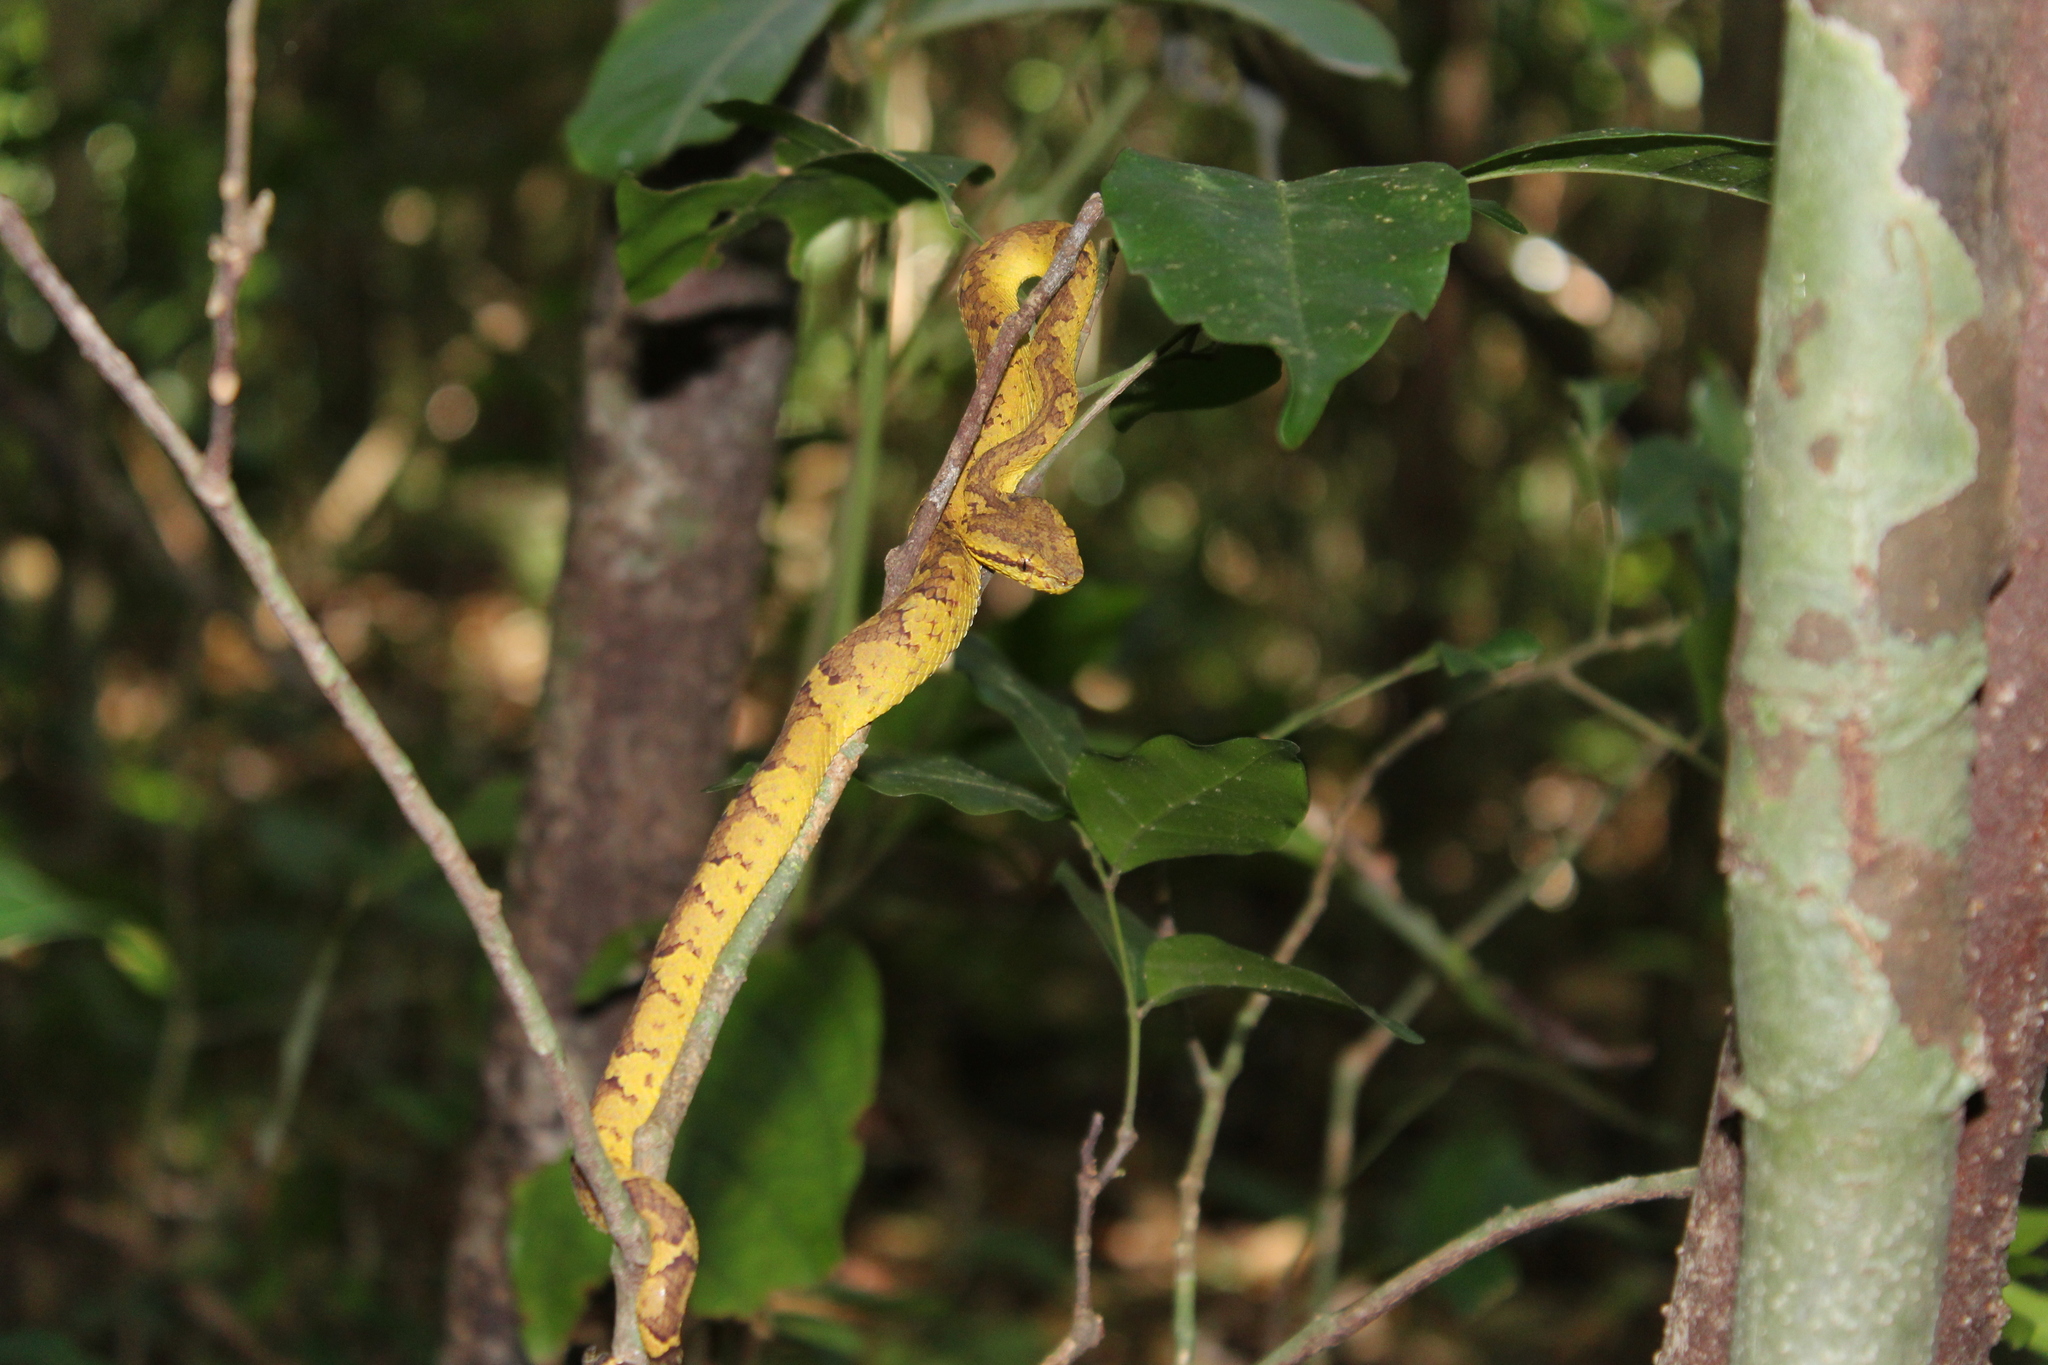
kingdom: Animalia
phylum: Chordata
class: Squamata
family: Viperidae
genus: Craspedocephalus
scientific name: Craspedocephalus malabaricus
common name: Malabarian pit viper
